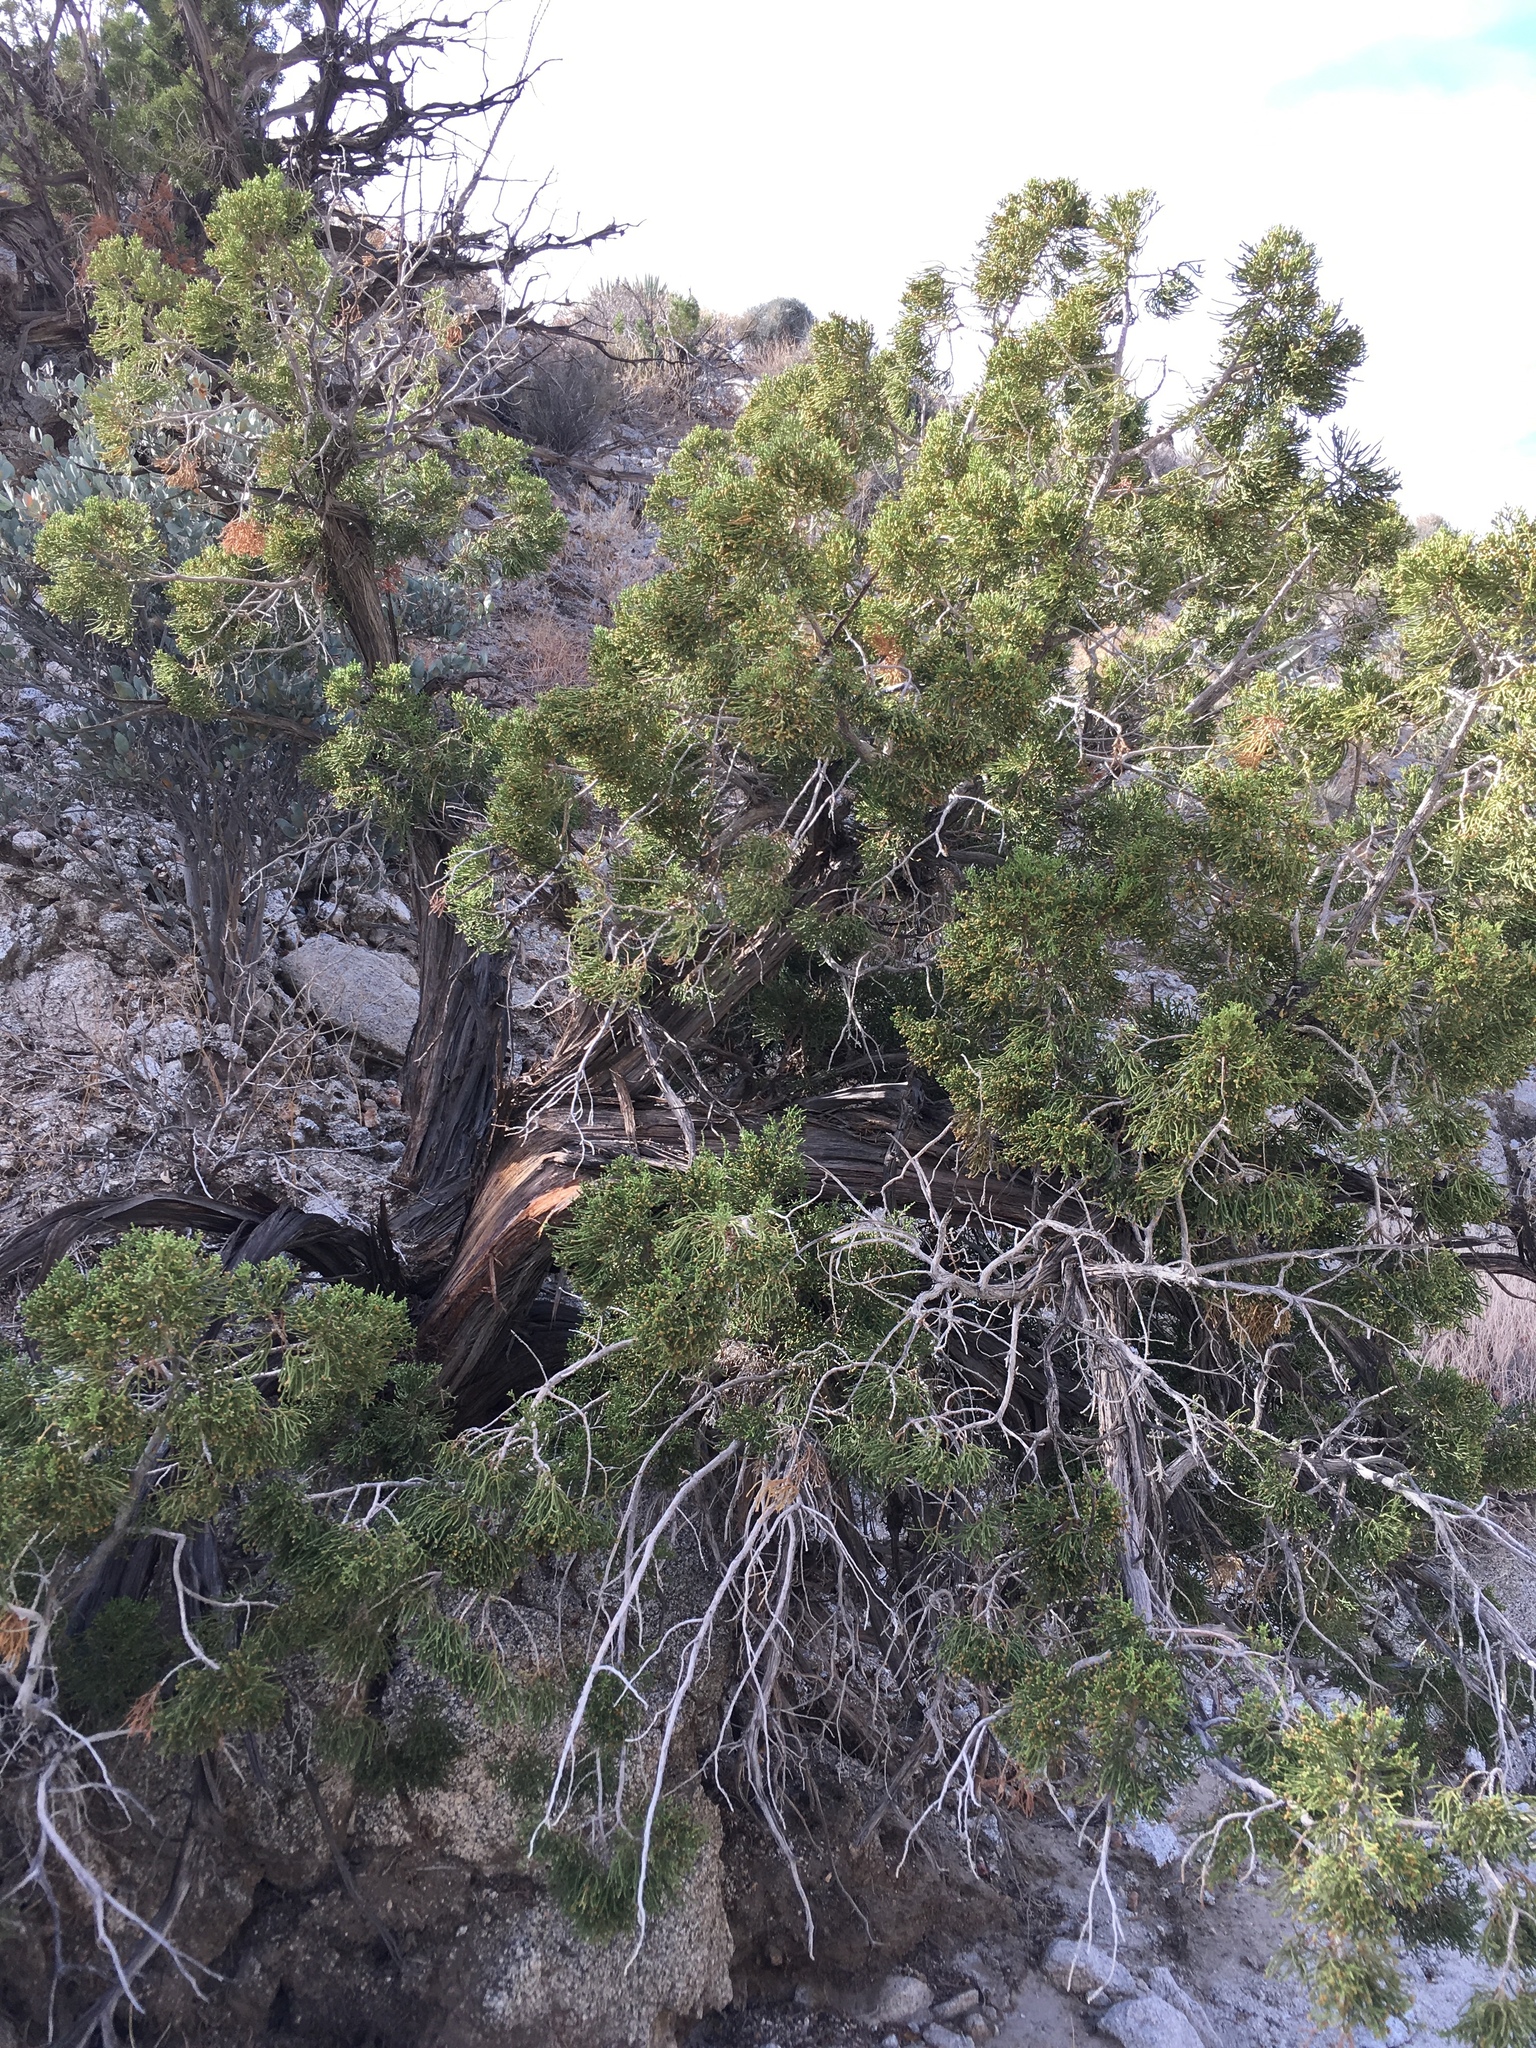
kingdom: Plantae
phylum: Tracheophyta
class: Pinopsida
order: Pinales
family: Cupressaceae
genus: Juniperus
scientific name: Juniperus californica
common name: California juniper
